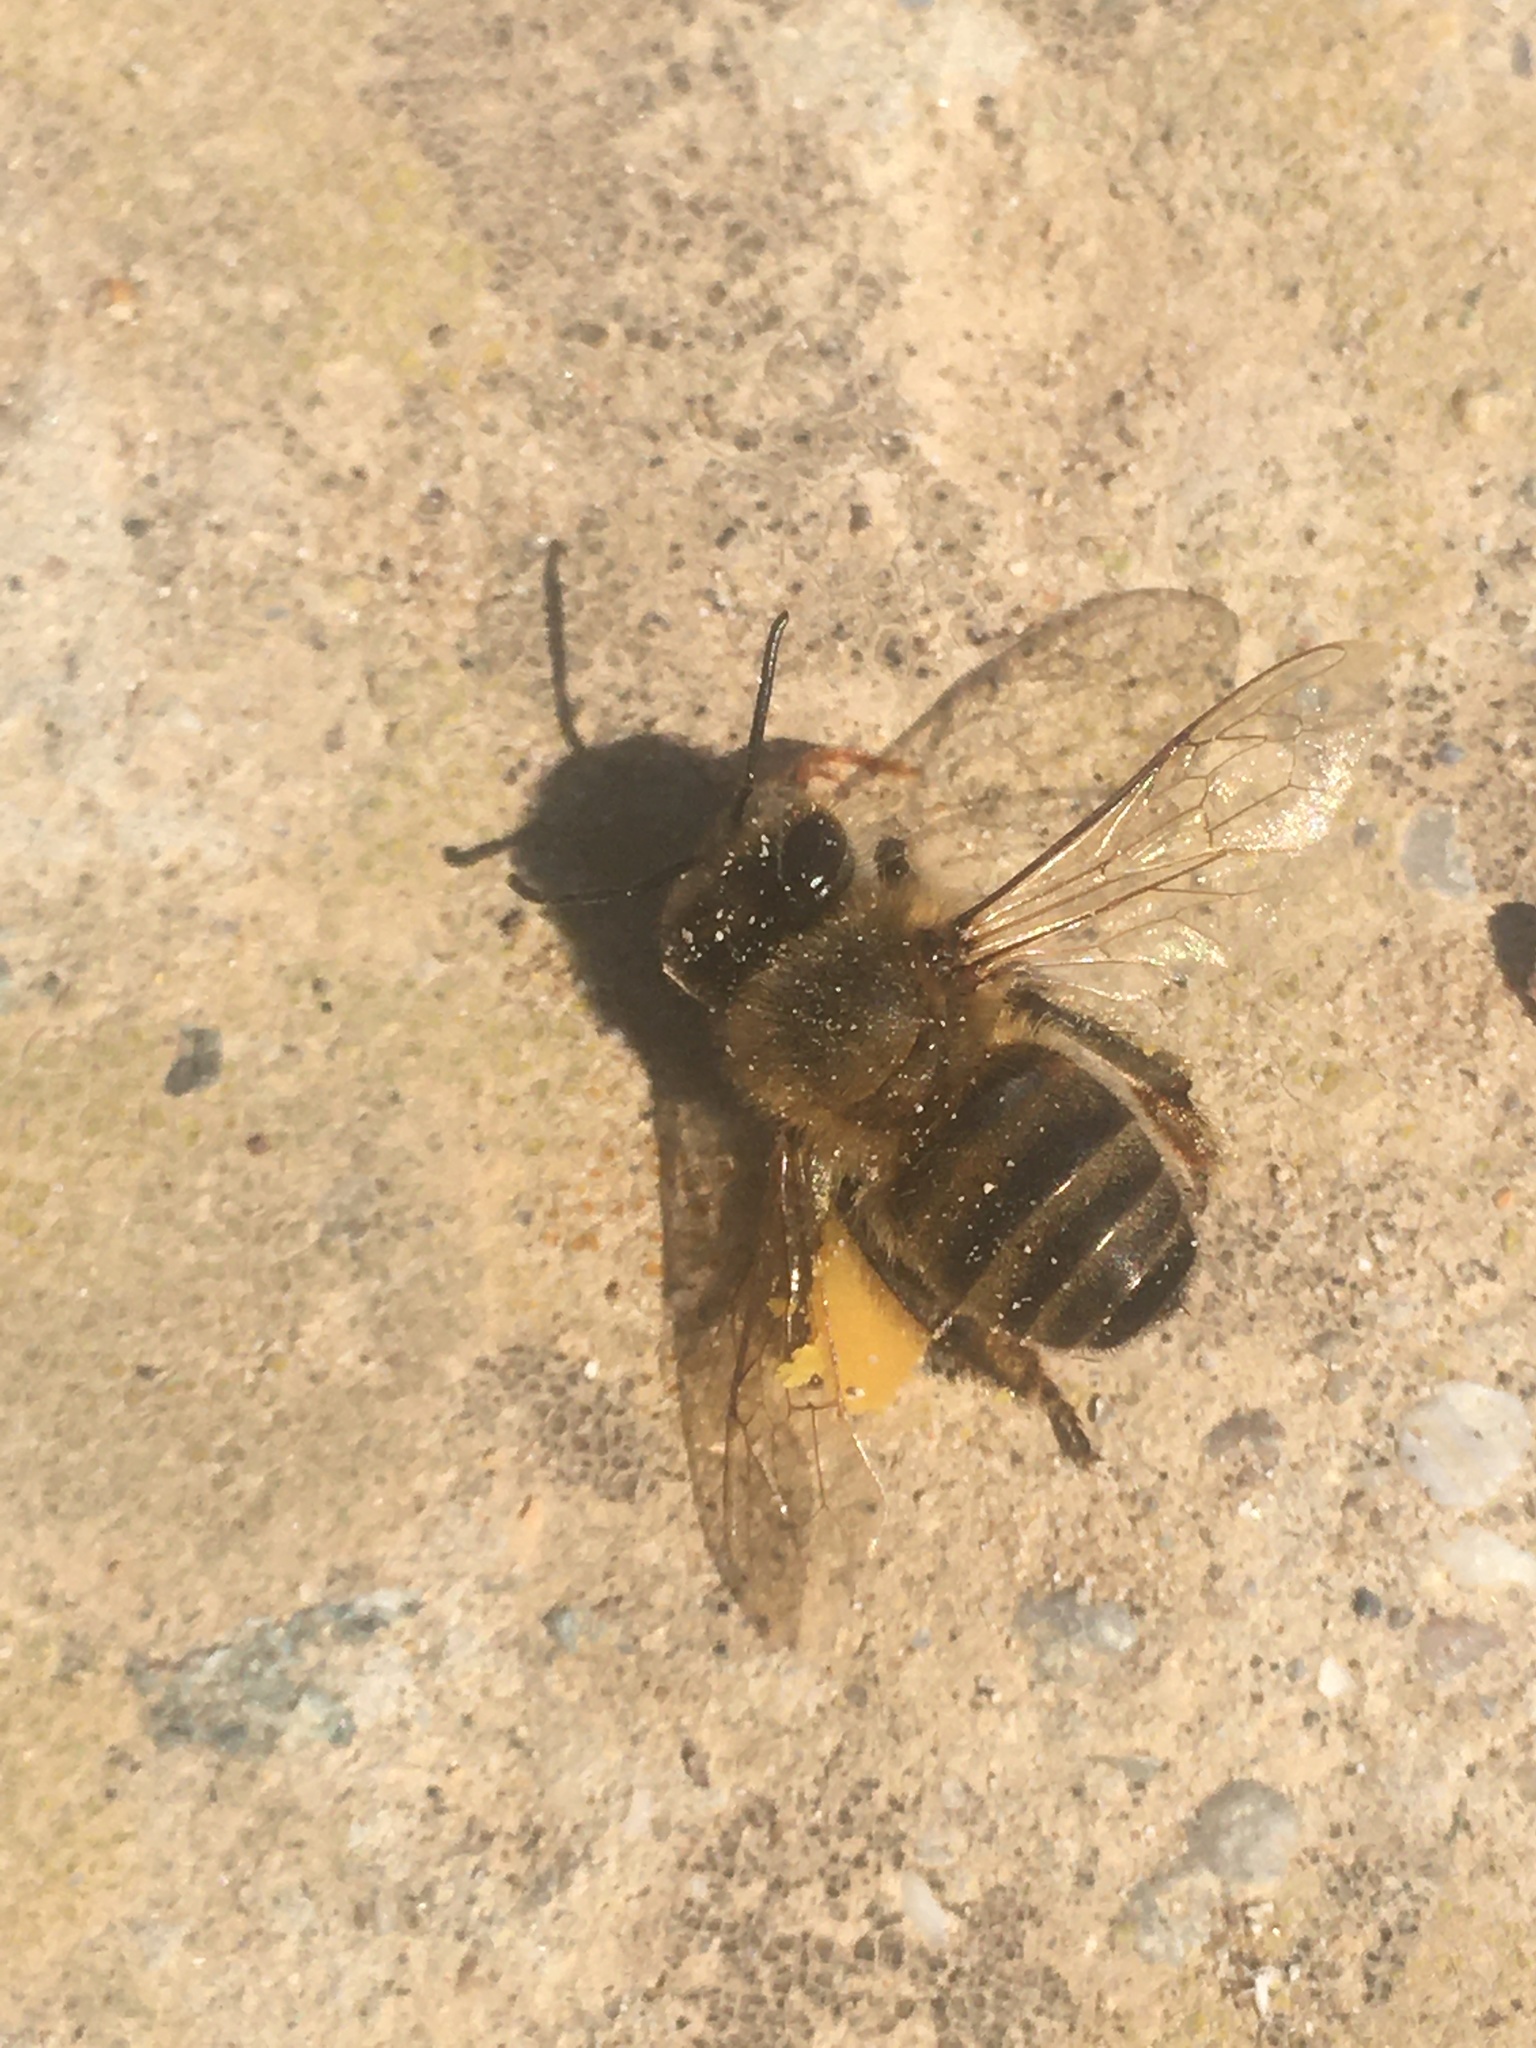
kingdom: Animalia
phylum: Arthropoda
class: Insecta
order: Hymenoptera
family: Apidae
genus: Apis
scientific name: Apis mellifera
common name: Honey bee
